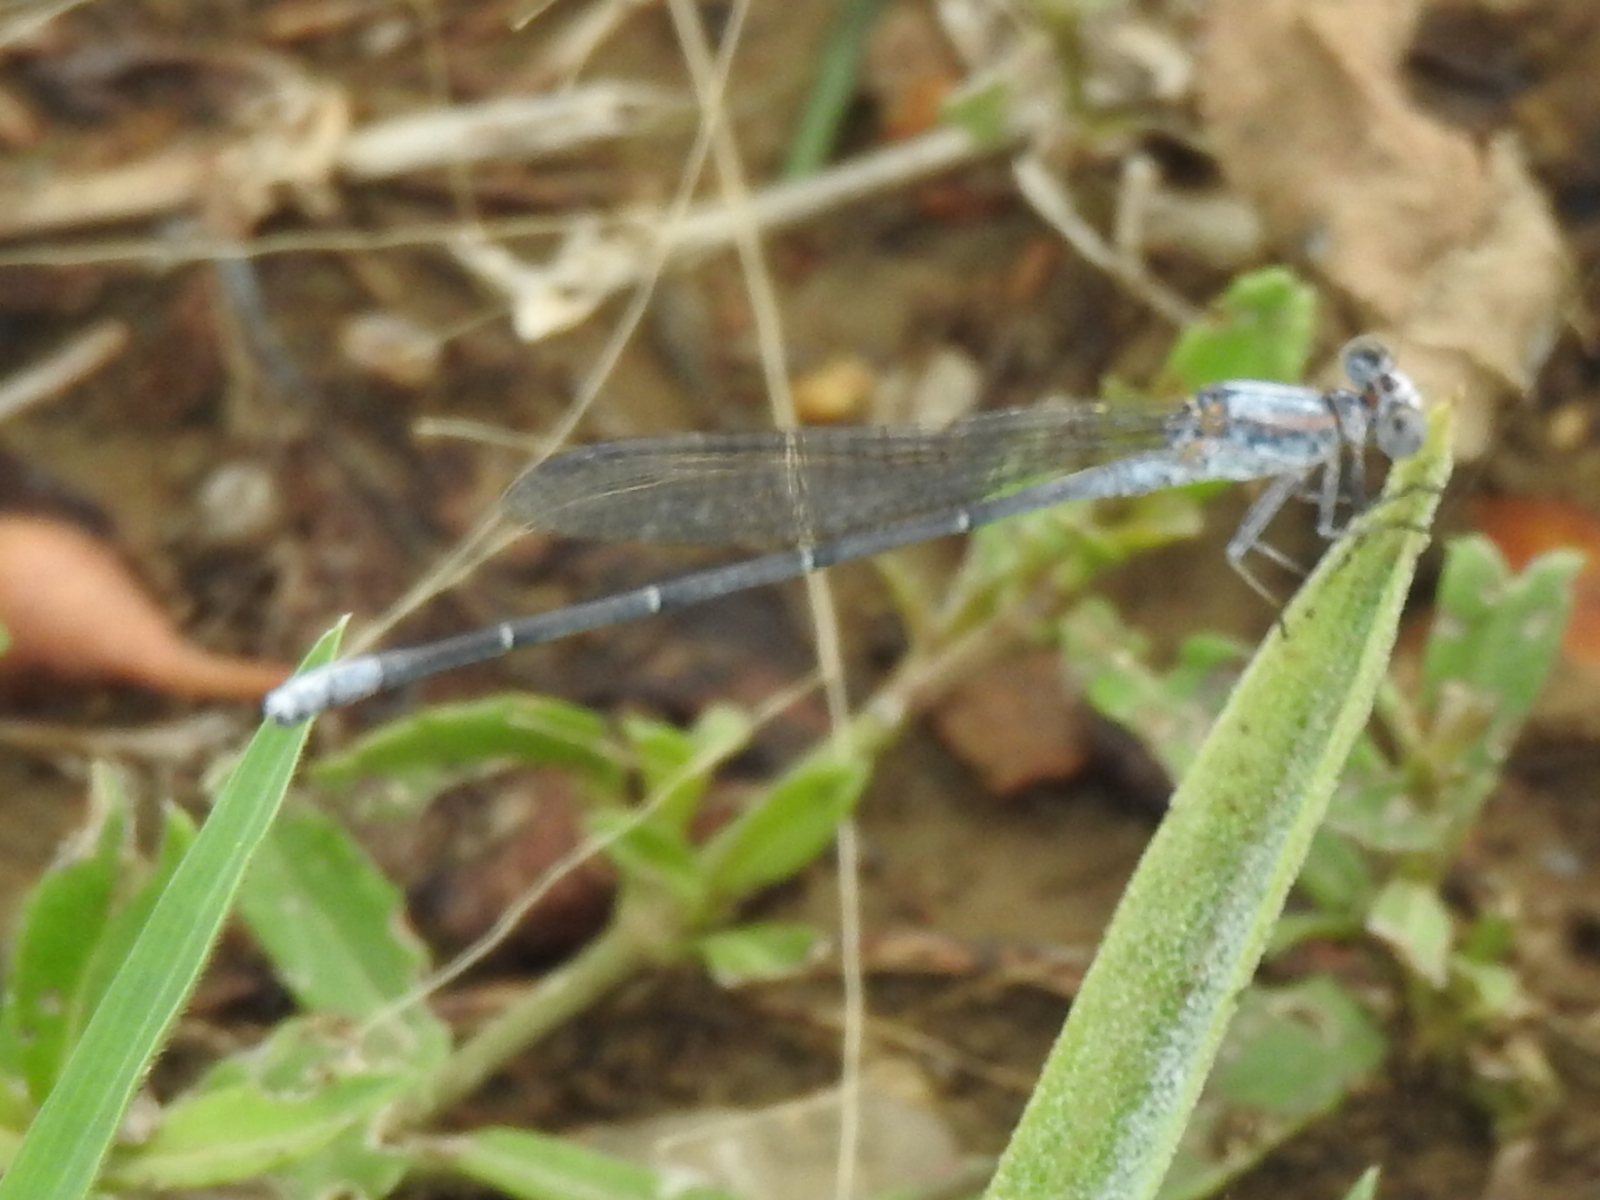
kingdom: Animalia
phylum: Arthropoda
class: Insecta
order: Odonata
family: Coenagrionidae
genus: Argia
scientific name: Argia moesta
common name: Powdered dancer
